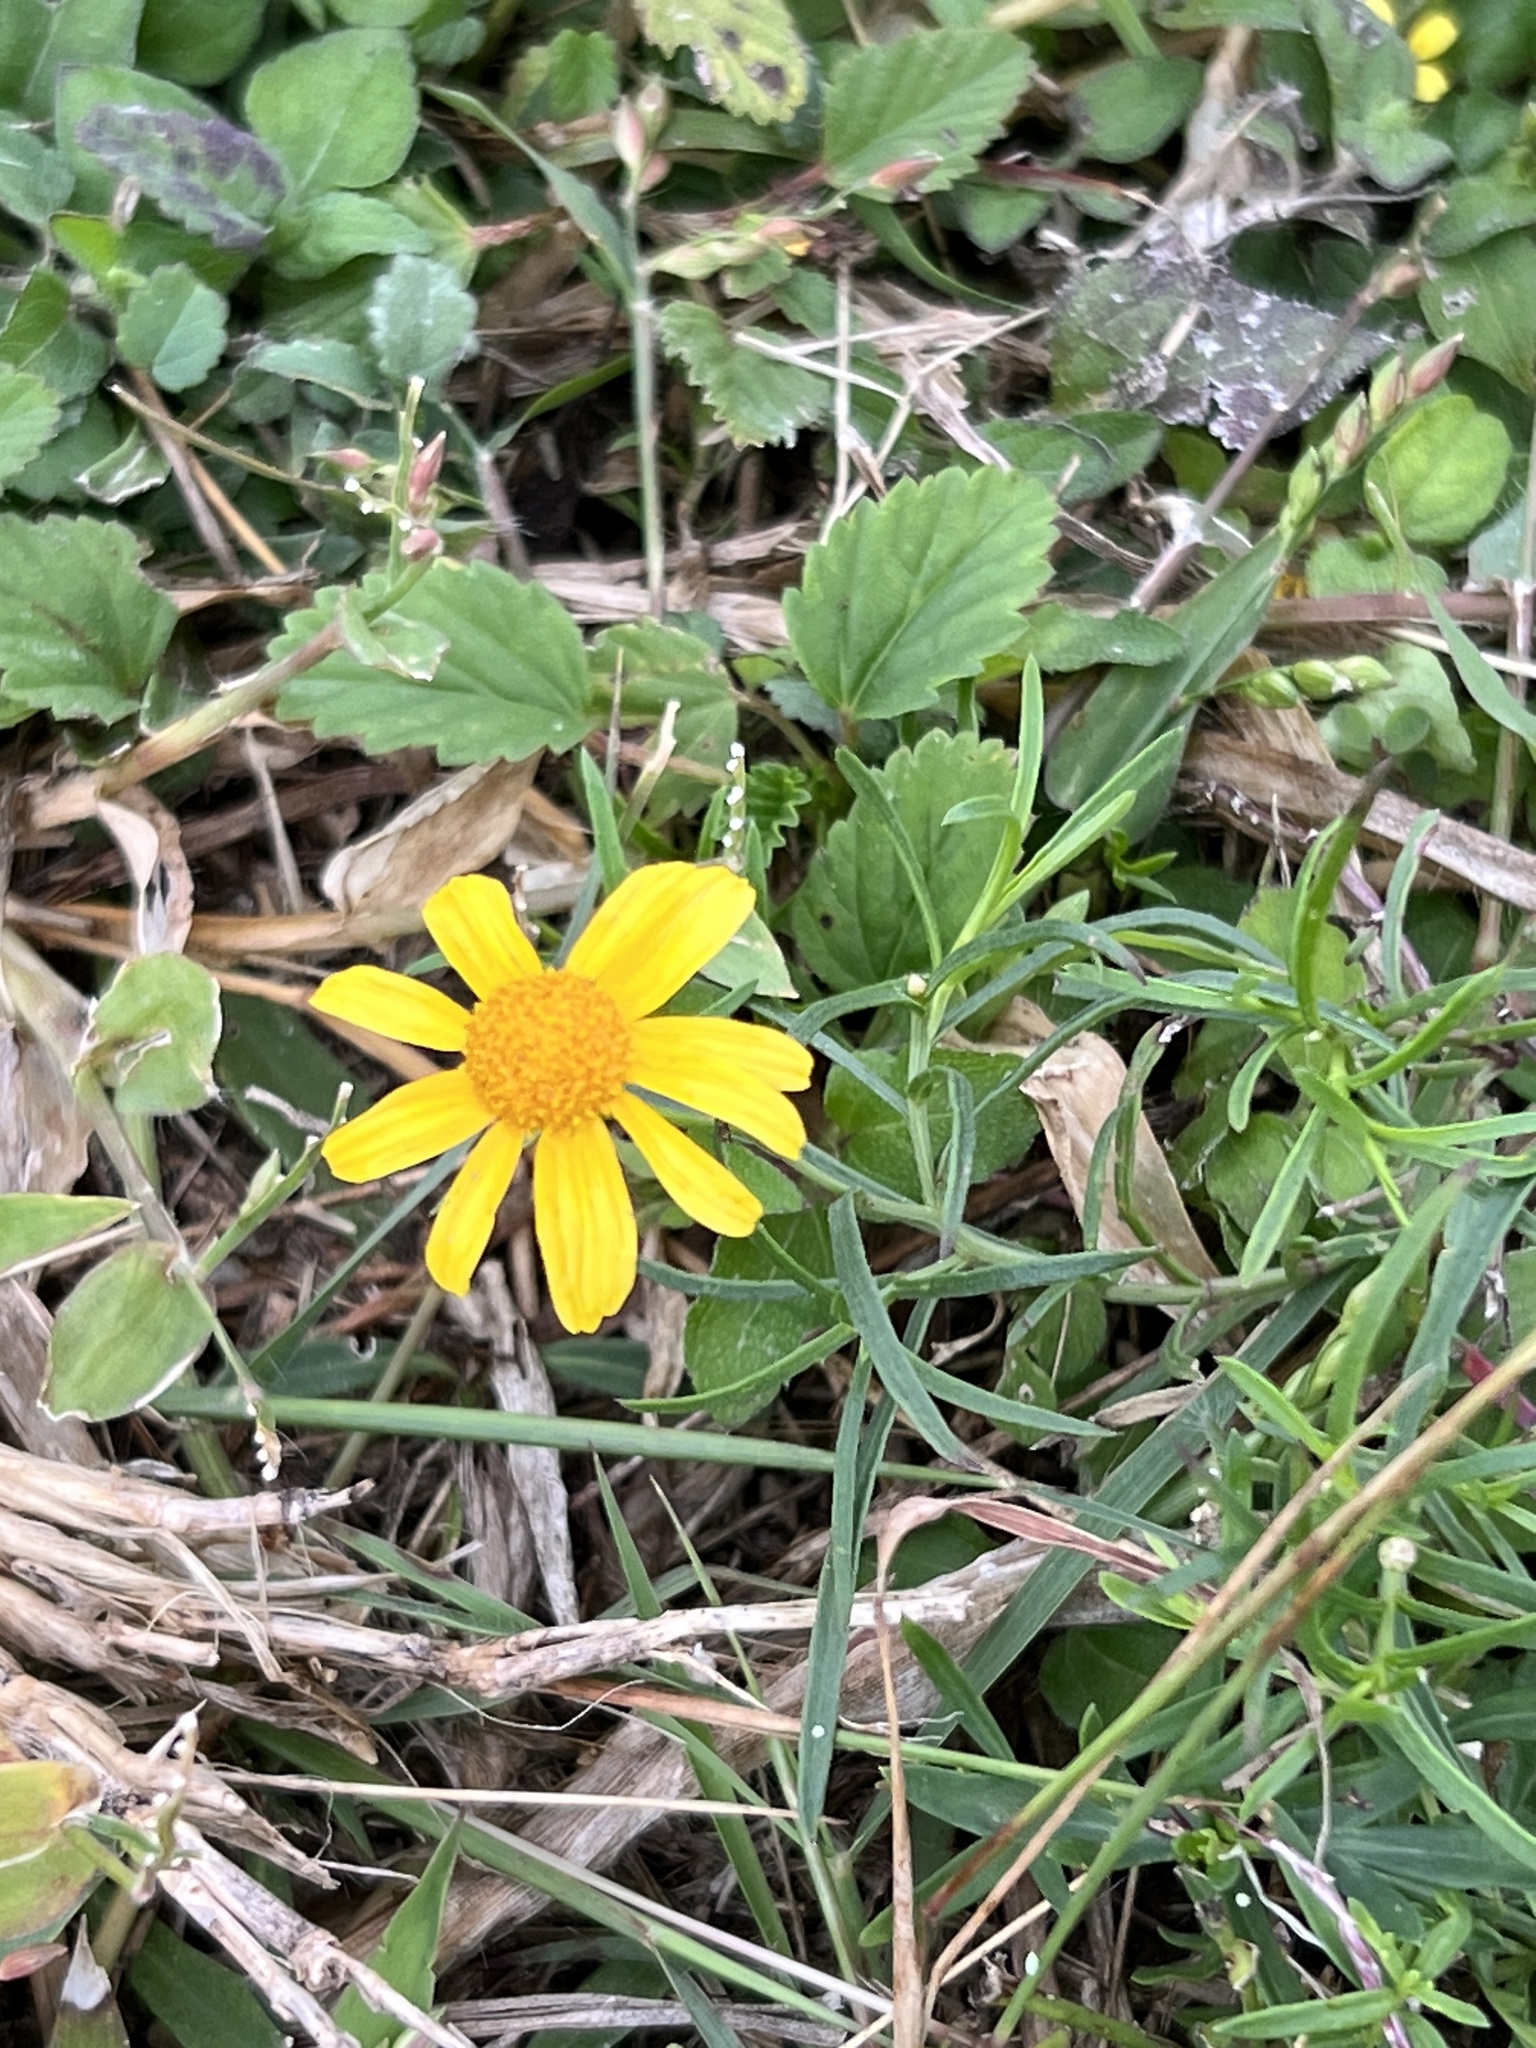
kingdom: Plantae
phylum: Tracheophyta
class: Magnoliopsida
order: Asterales
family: Asteraceae
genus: Acmella
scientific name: Acmella repens
